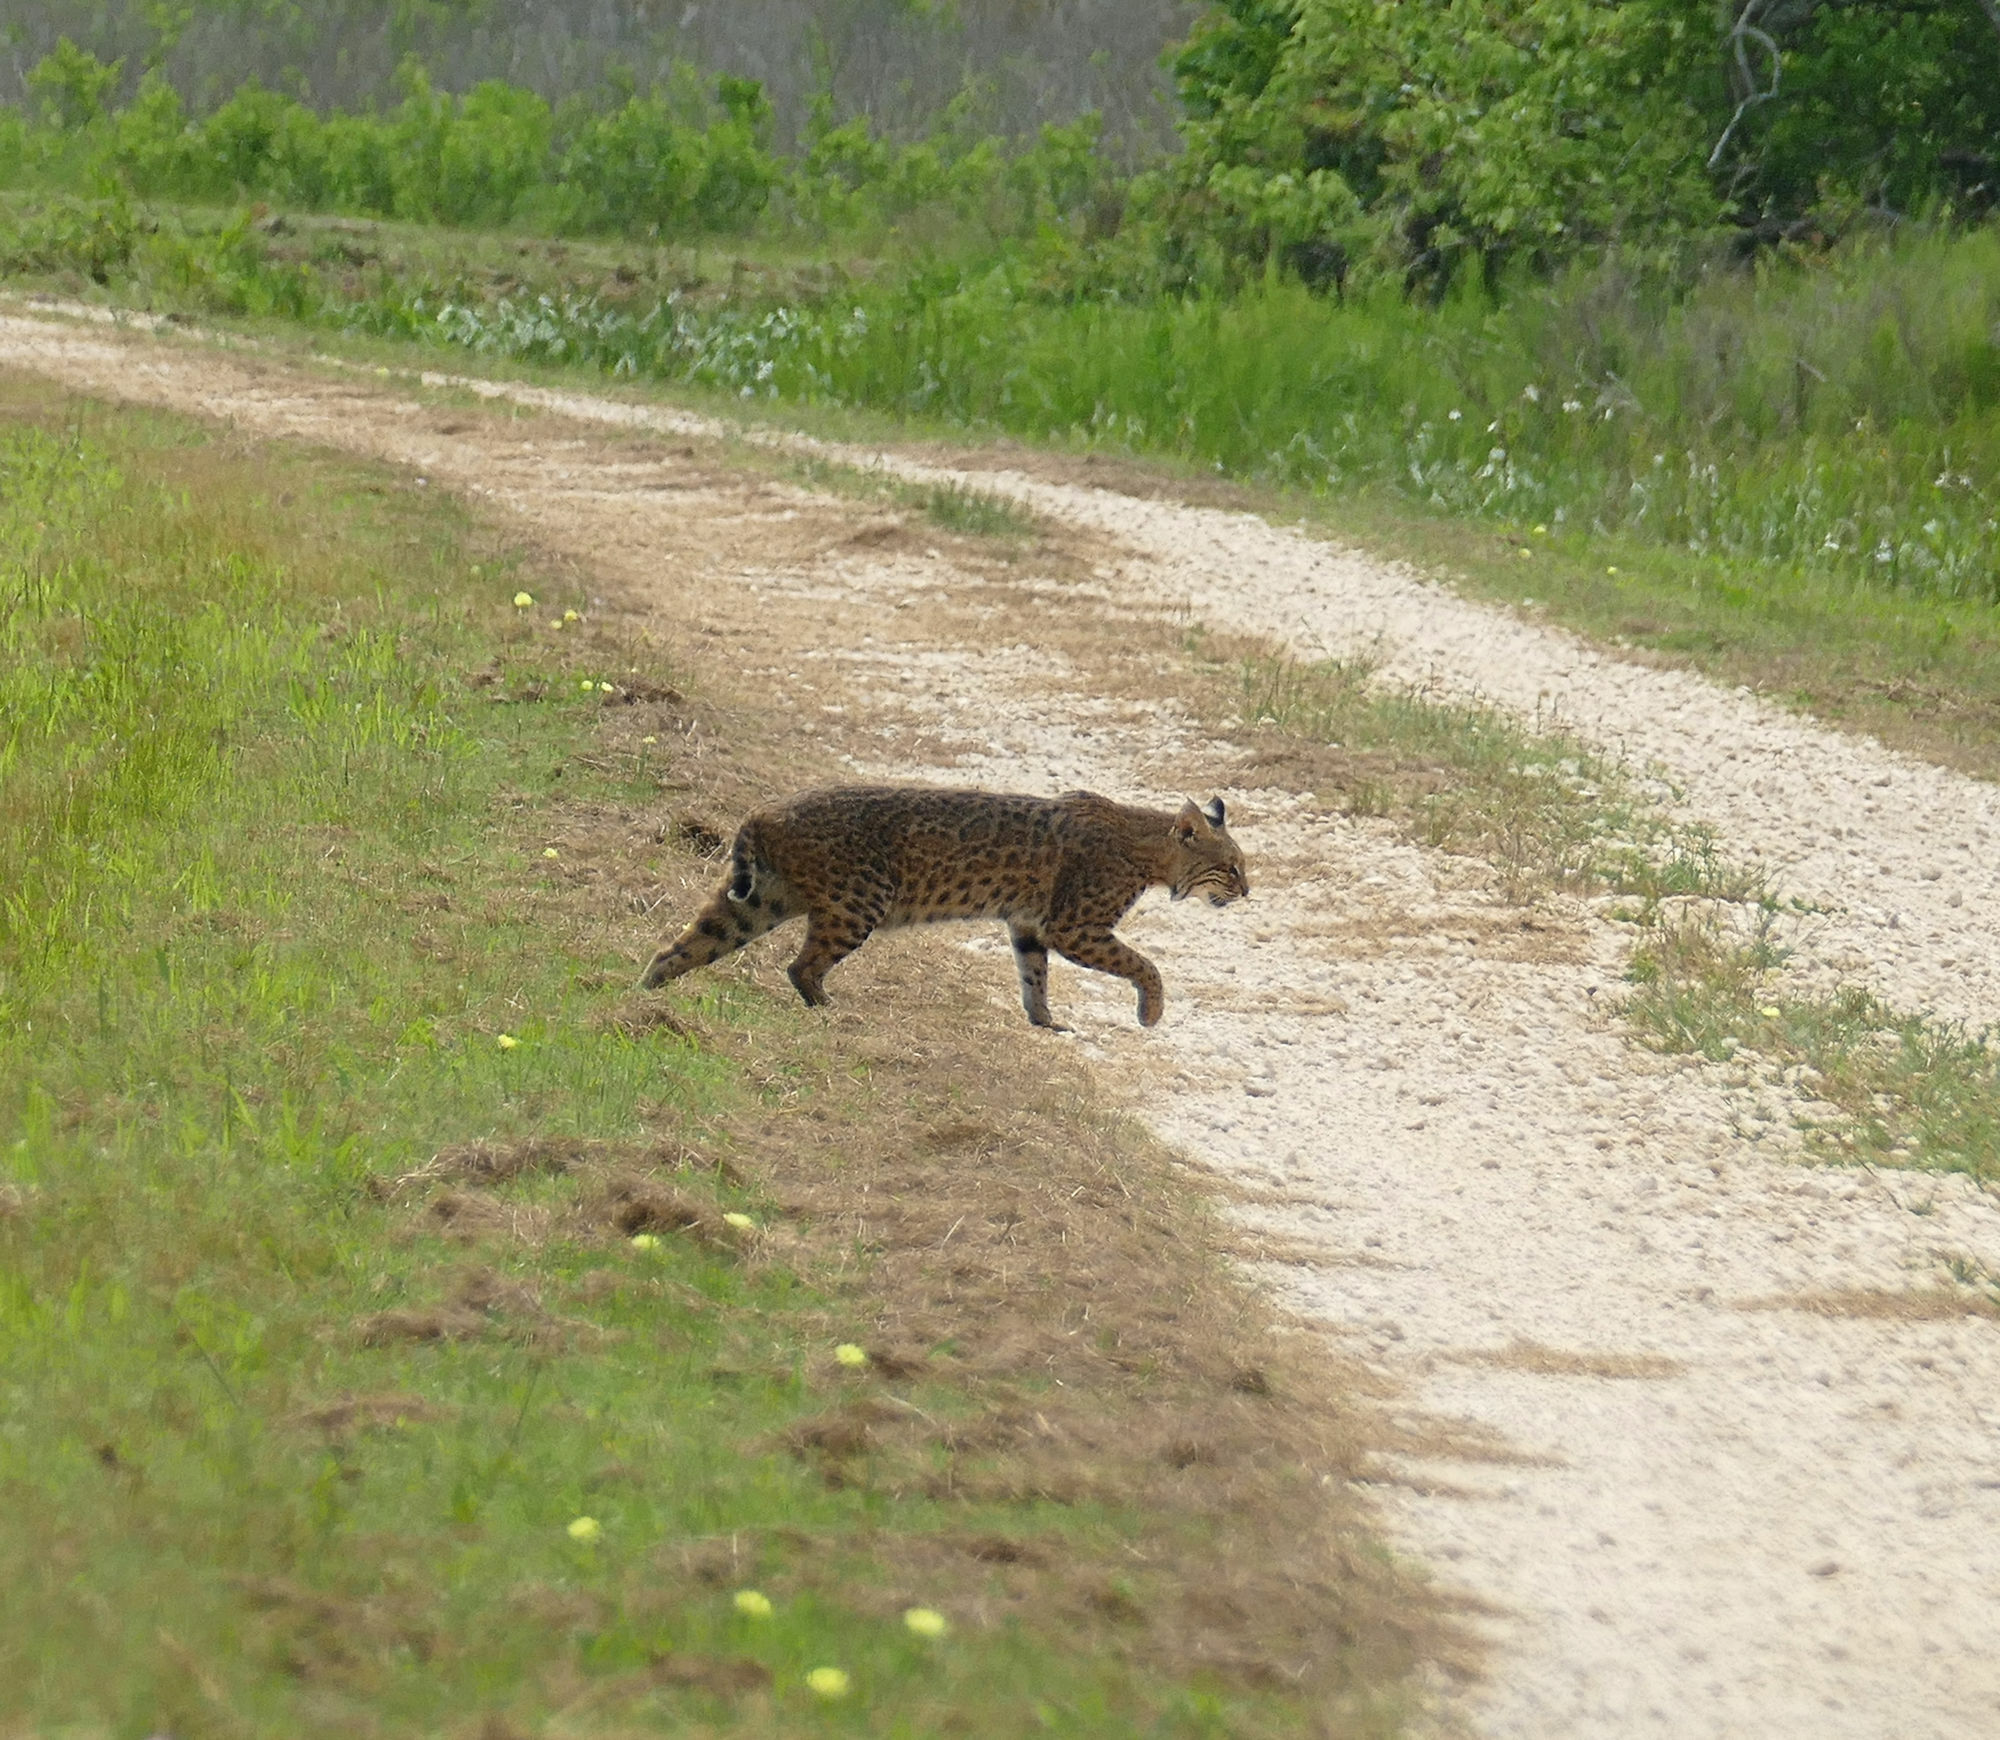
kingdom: Animalia
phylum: Chordata
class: Mammalia
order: Carnivora
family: Felidae
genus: Lynx
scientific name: Lynx rufus
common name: Bobcat
